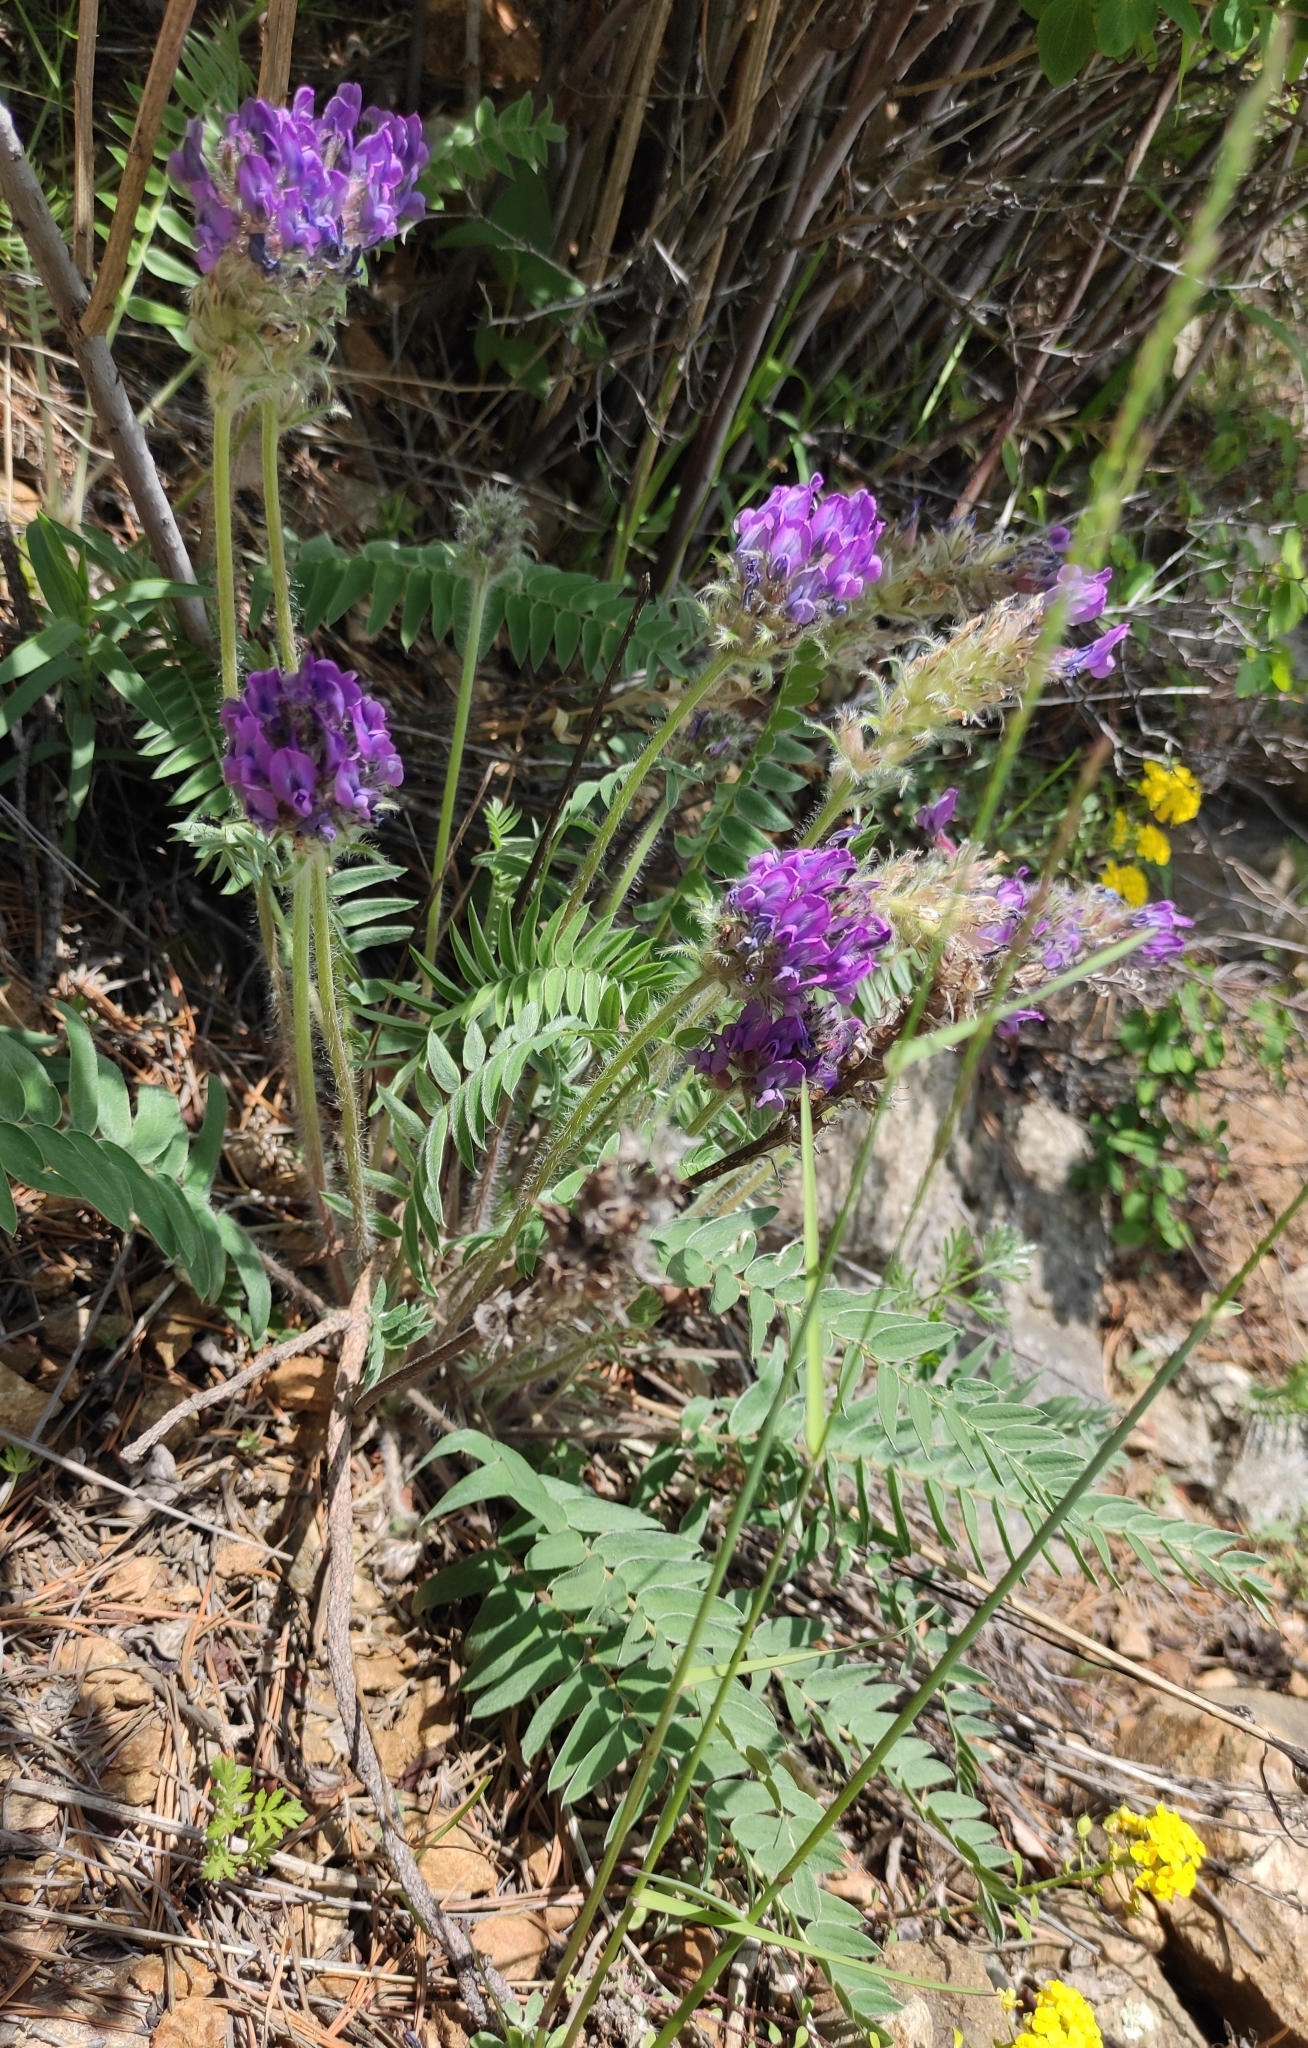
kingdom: Plantae
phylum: Tracheophyta
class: Magnoliopsida
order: Fabales
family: Fabaceae
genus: Oxytropis
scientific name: Oxytropis strobilacea
